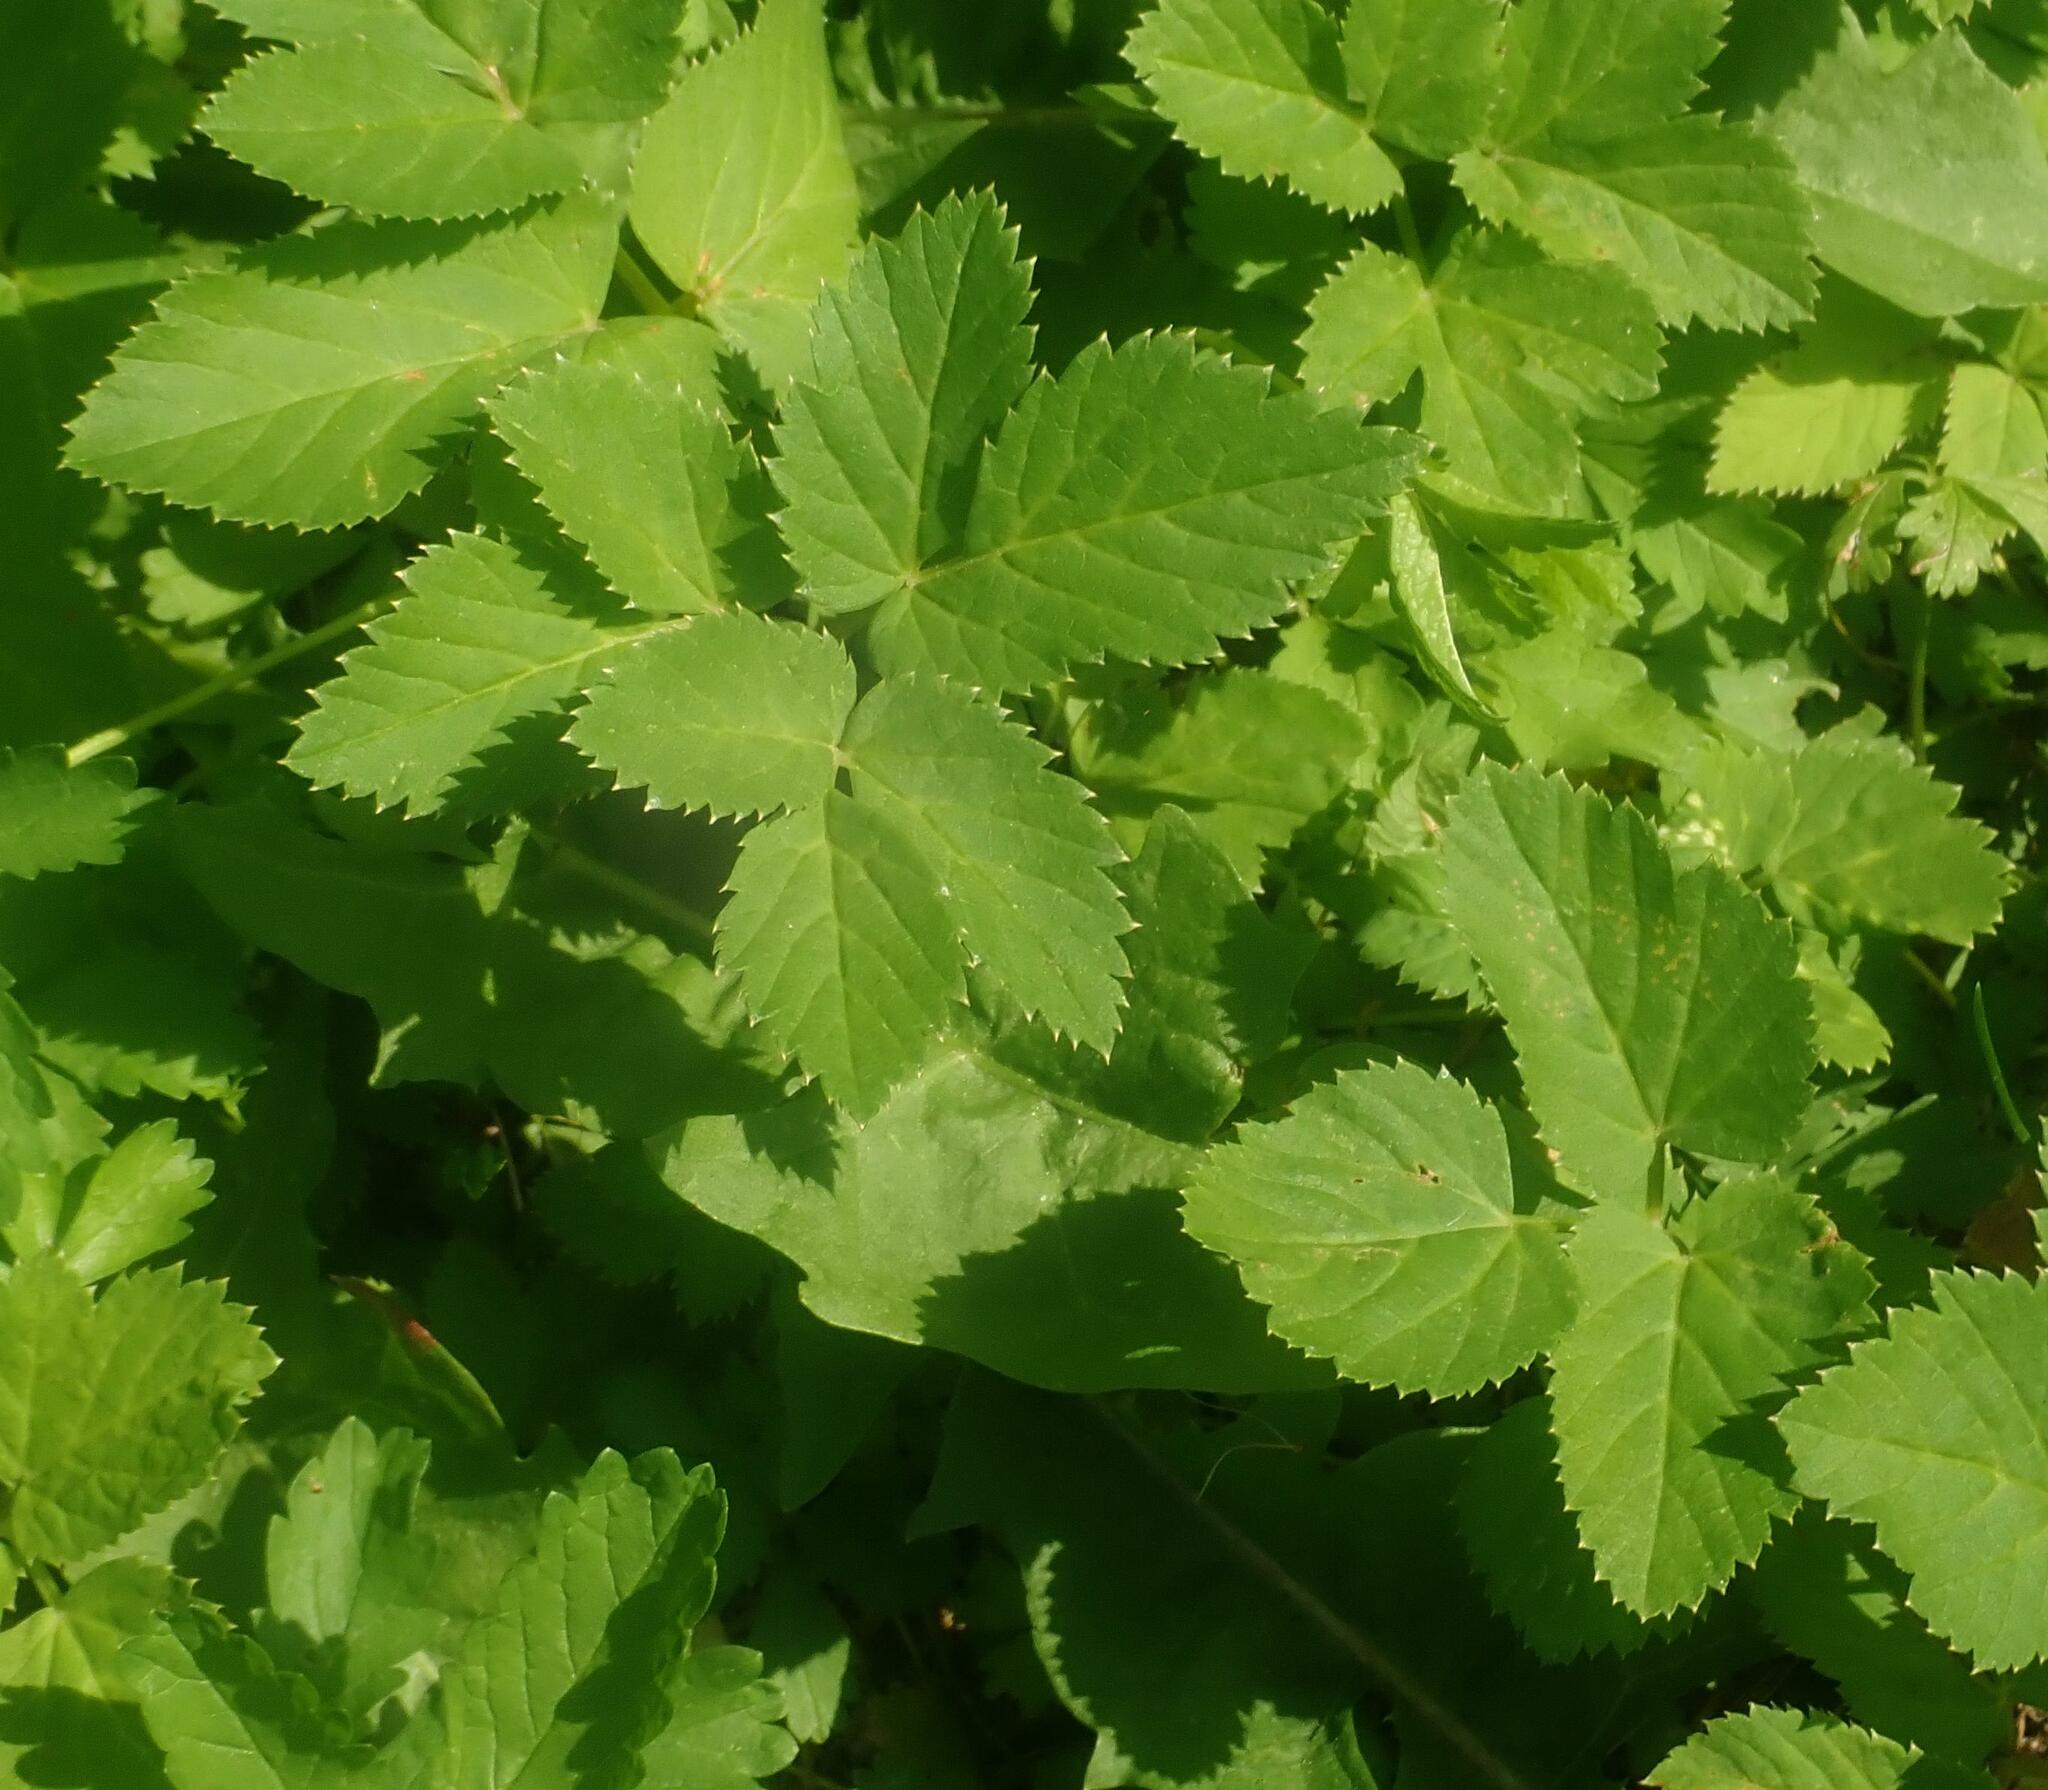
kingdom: Plantae
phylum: Tracheophyta
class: Magnoliopsida
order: Apiales
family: Apiaceae
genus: Aegopodium
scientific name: Aegopodium podagraria
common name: Ground-elder
